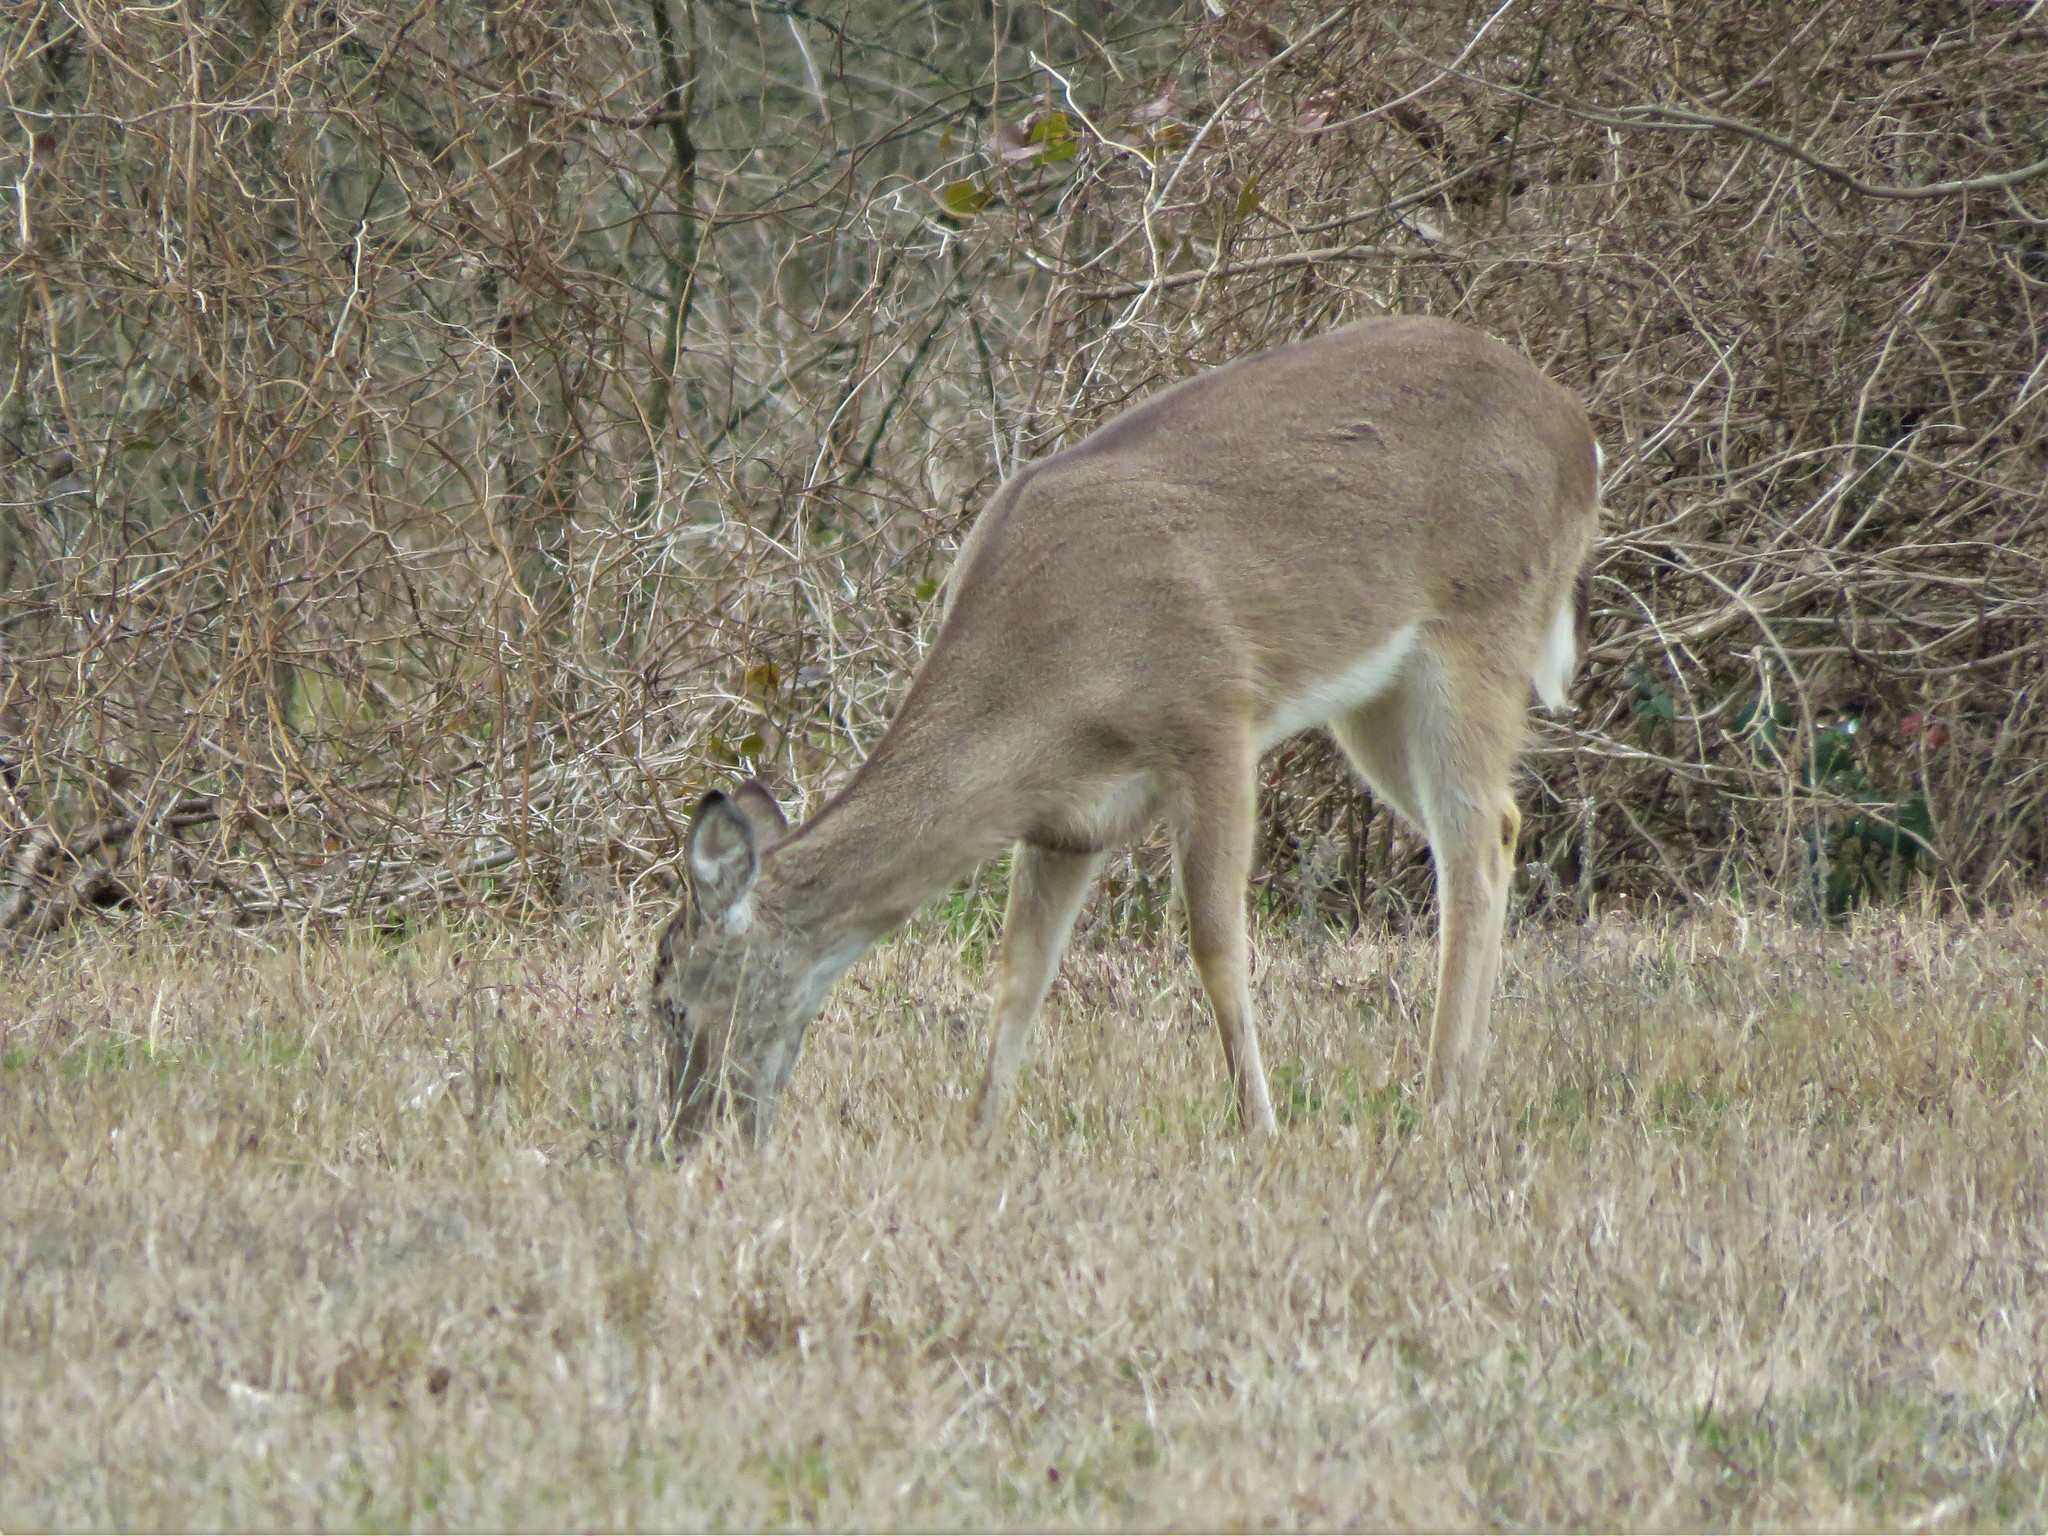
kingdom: Animalia
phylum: Chordata
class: Mammalia
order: Artiodactyla
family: Cervidae
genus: Odocoileus
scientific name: Odocoileus virginianus
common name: White-tailed deer
